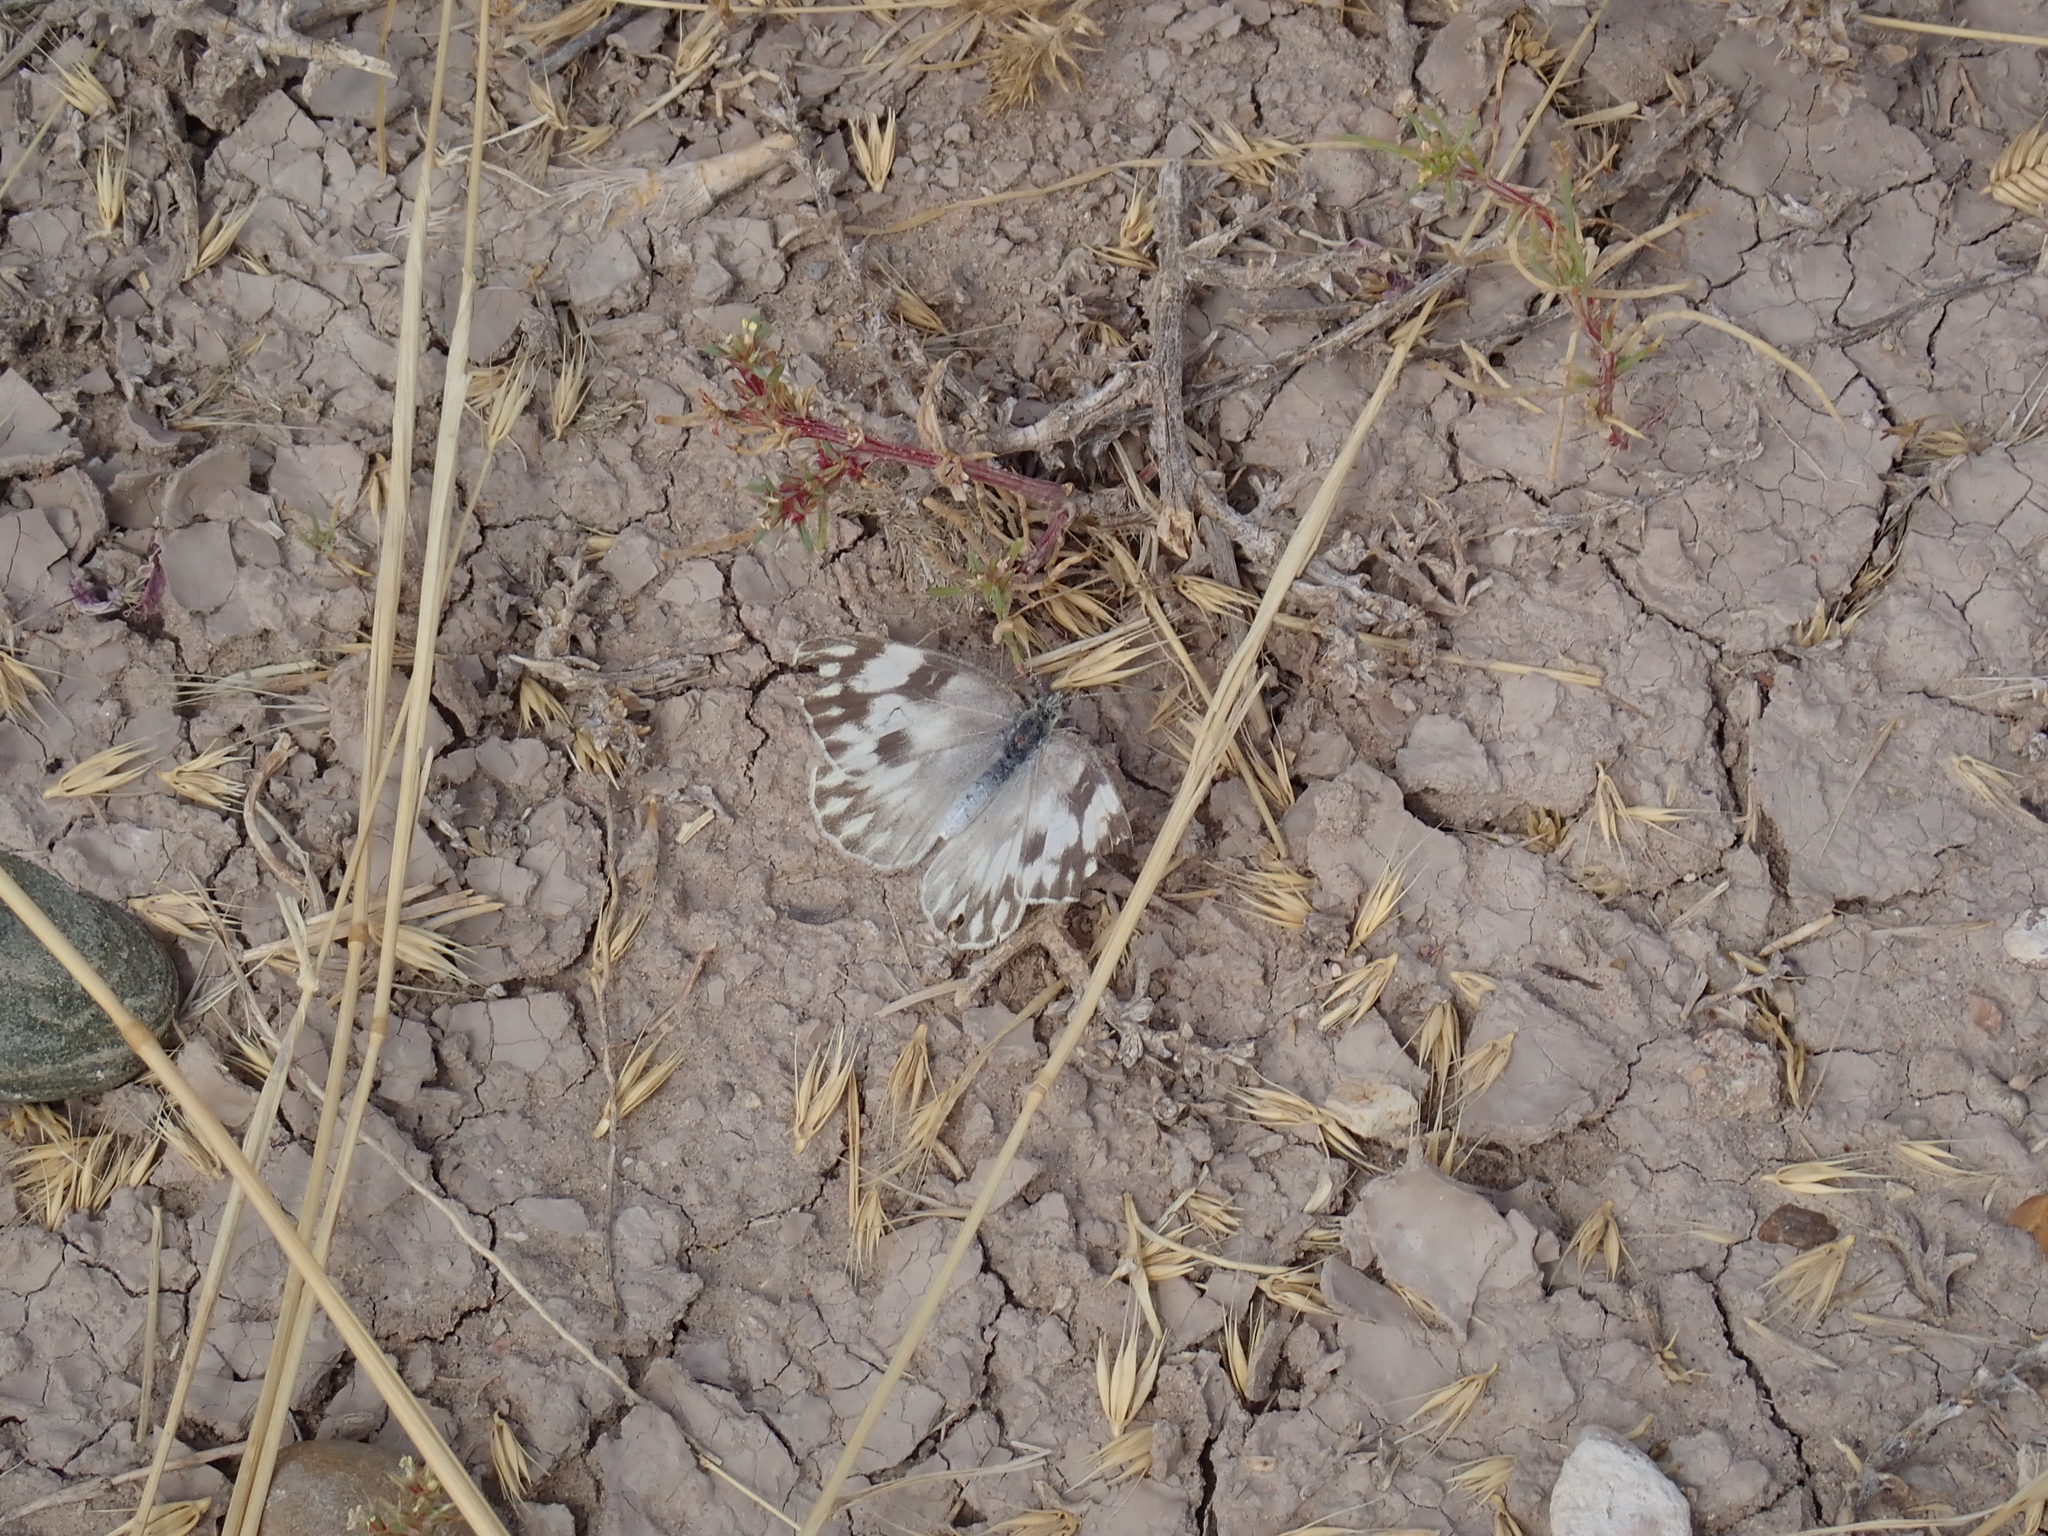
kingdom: Animalia
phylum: Arthropoda
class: Insecta
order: Lepidoptera
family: Pieridae
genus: Pontia
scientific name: Pontia protodice
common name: Checkered white
